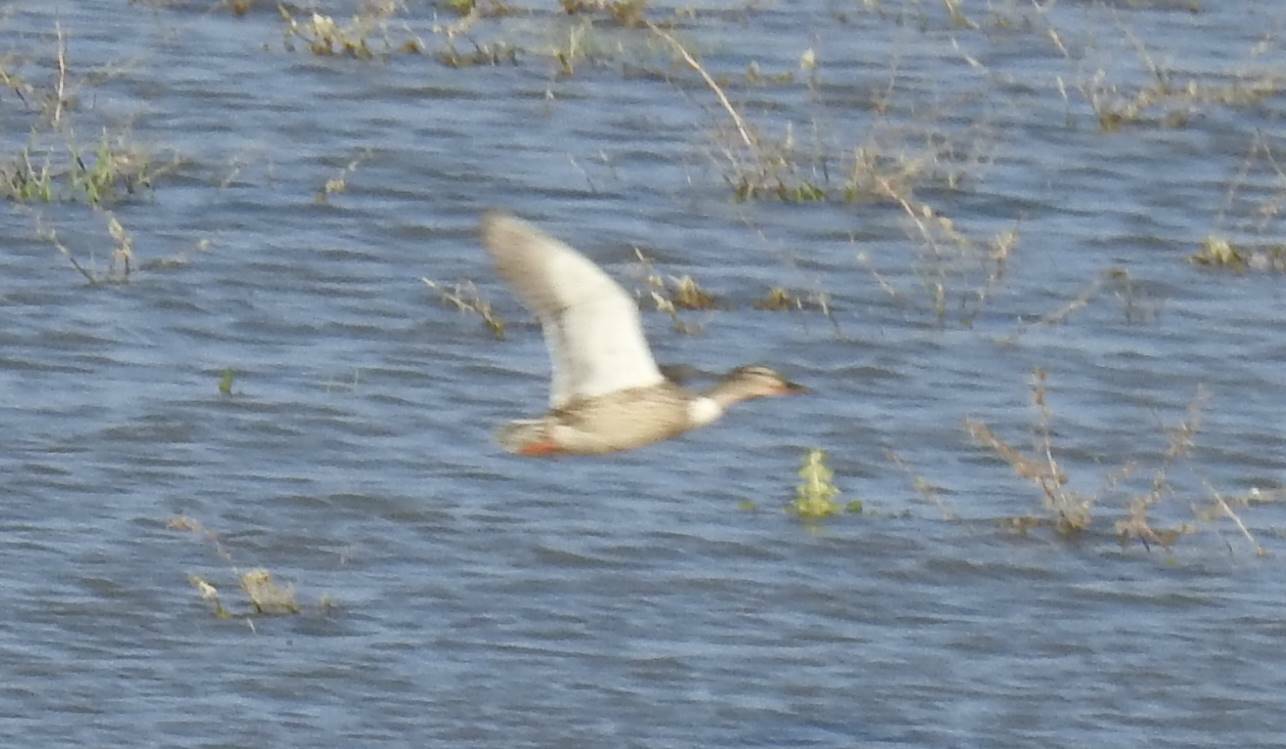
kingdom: Animalia
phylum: Chordata
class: Aves
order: Anseriformes
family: Anatidae
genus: Anas
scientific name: Anas platyrhynchos
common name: Mallard
